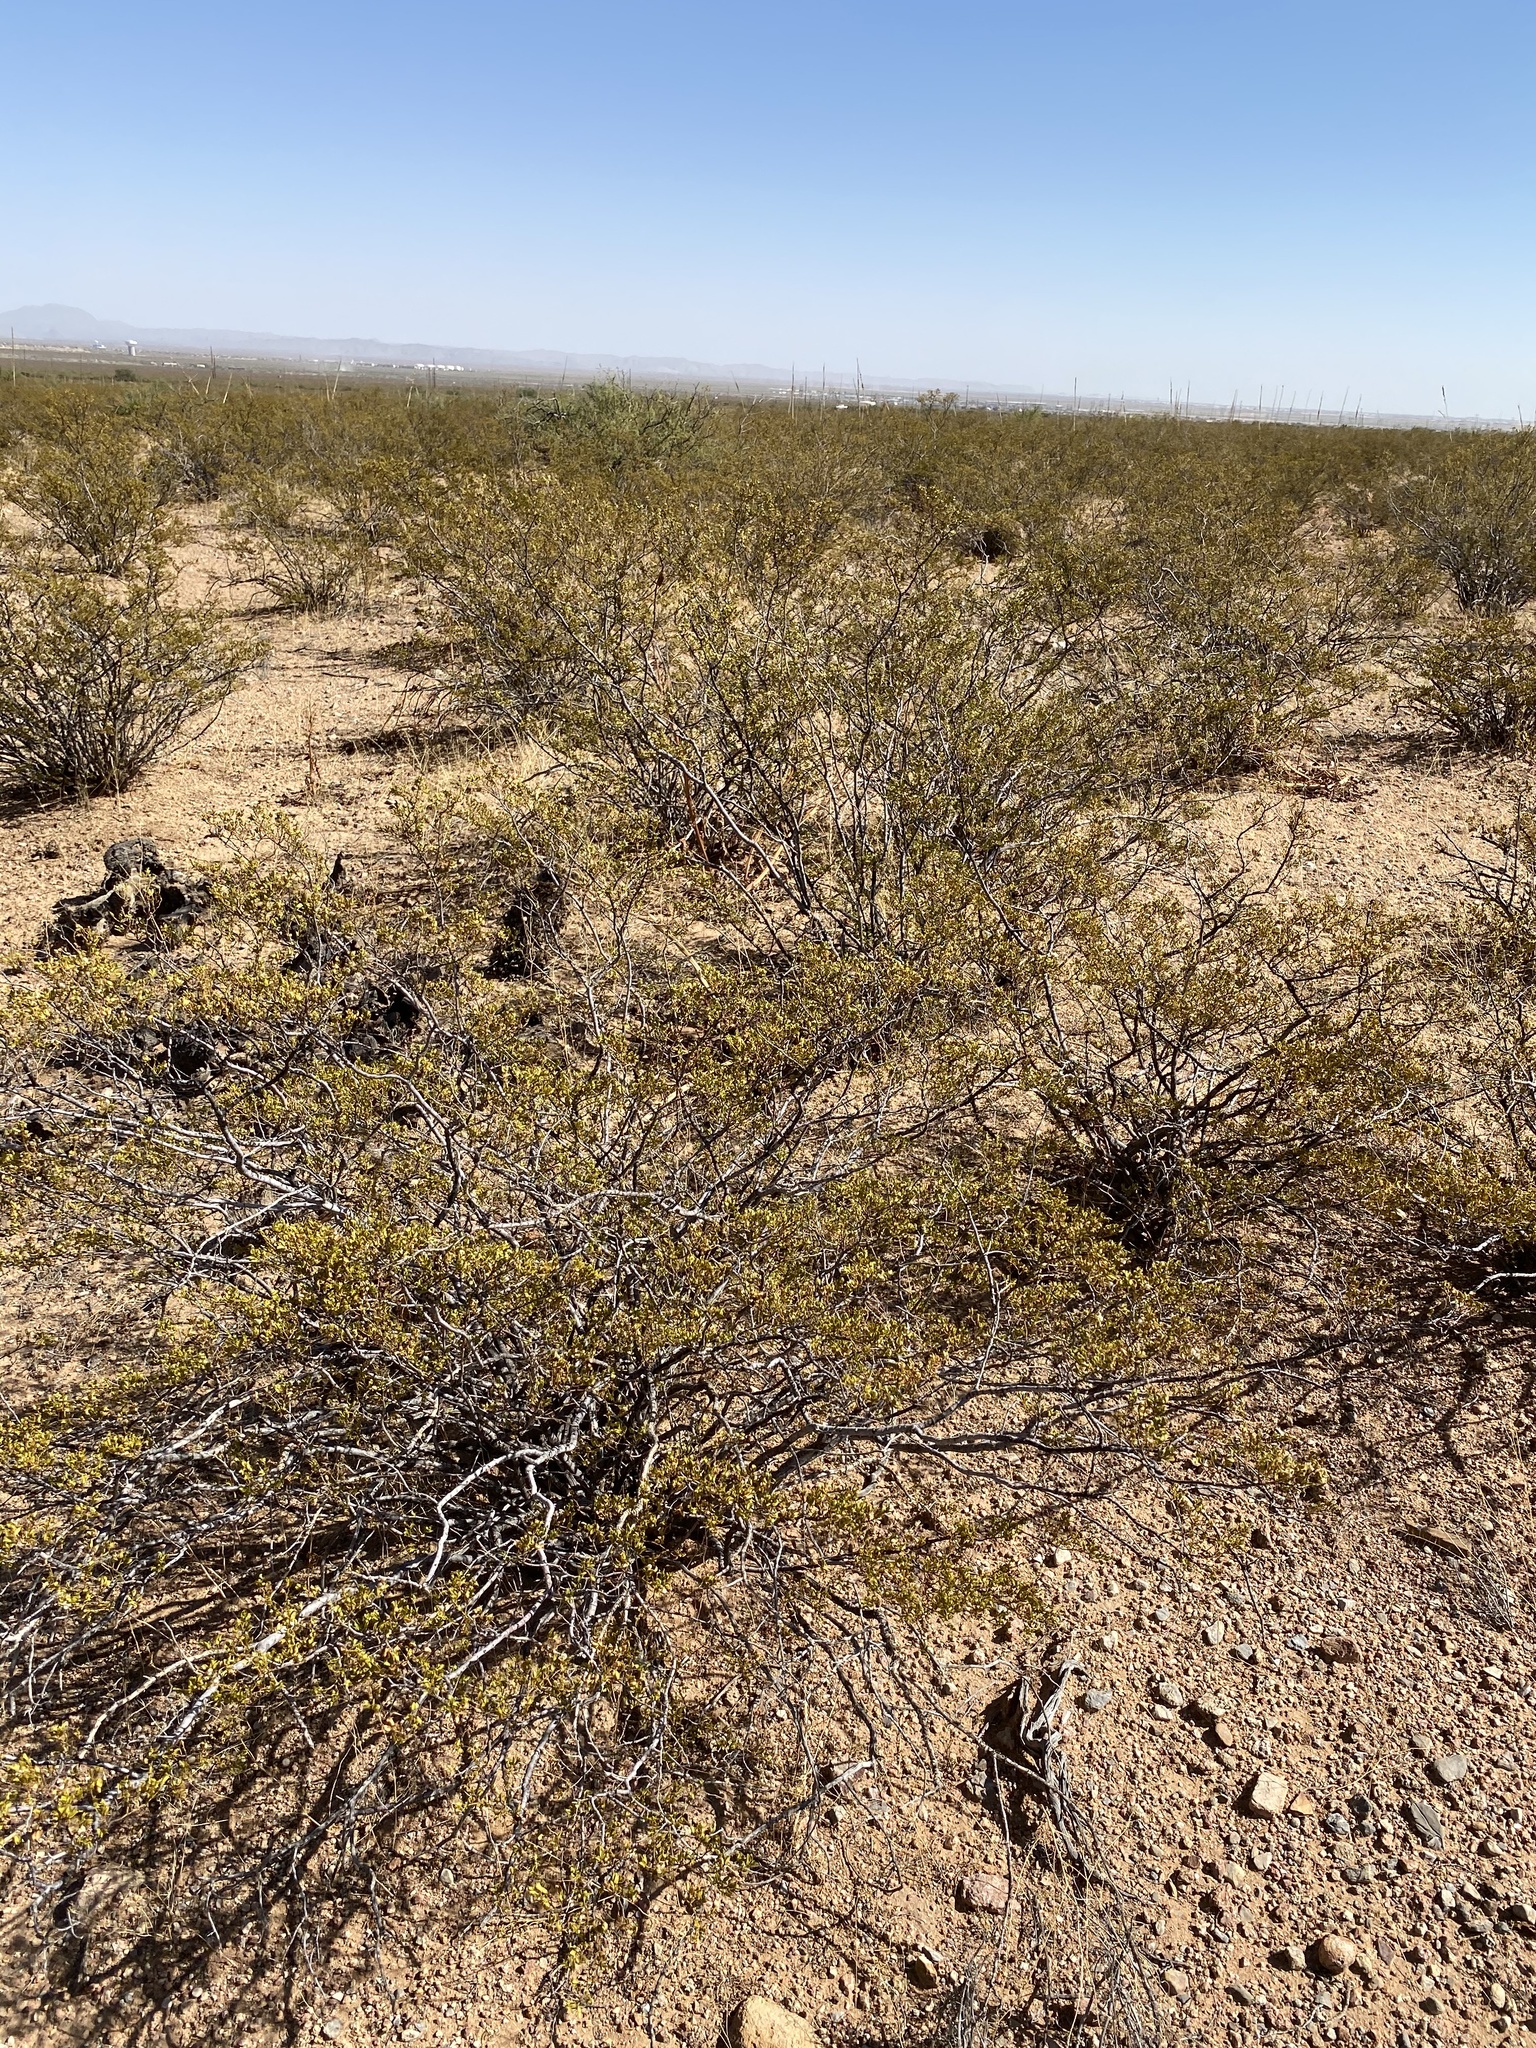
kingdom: Plantae
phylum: Tracheophyta
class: Magnoliopsida
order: Zygophyllales
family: Zygophyllaceae
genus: Larrea
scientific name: Larrea tridentata
